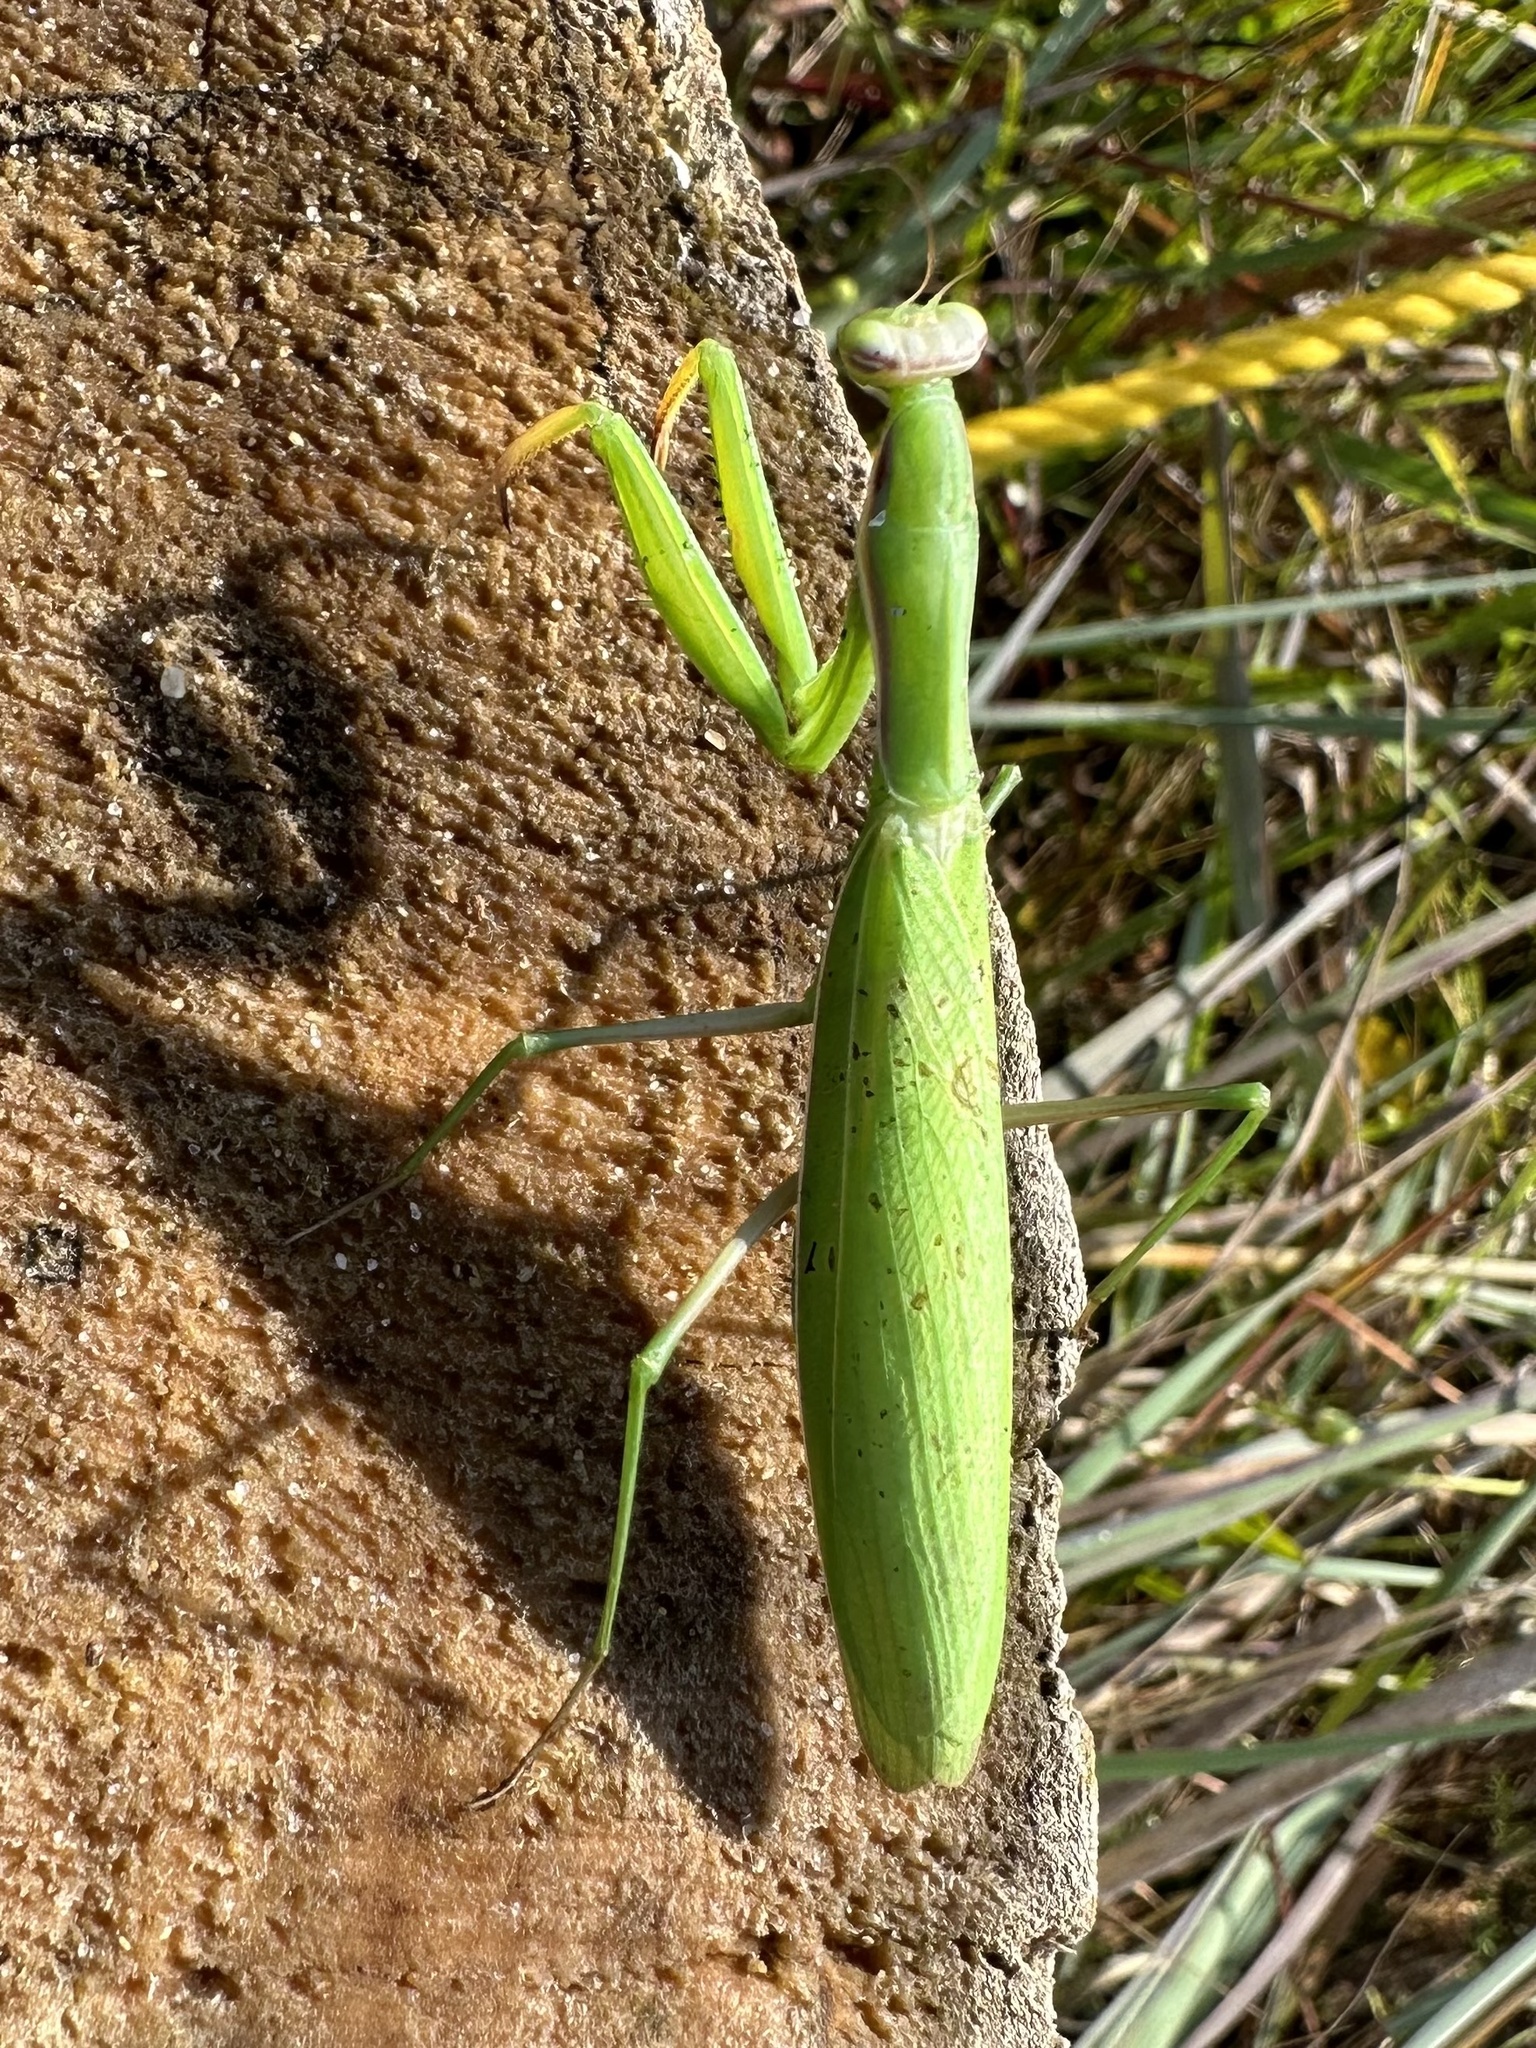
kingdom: Animalia
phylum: Arthropoda
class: Insecta
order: Mantodea
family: Mantidae
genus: Mantis
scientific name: Mantis religiosa
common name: Praying mantis
